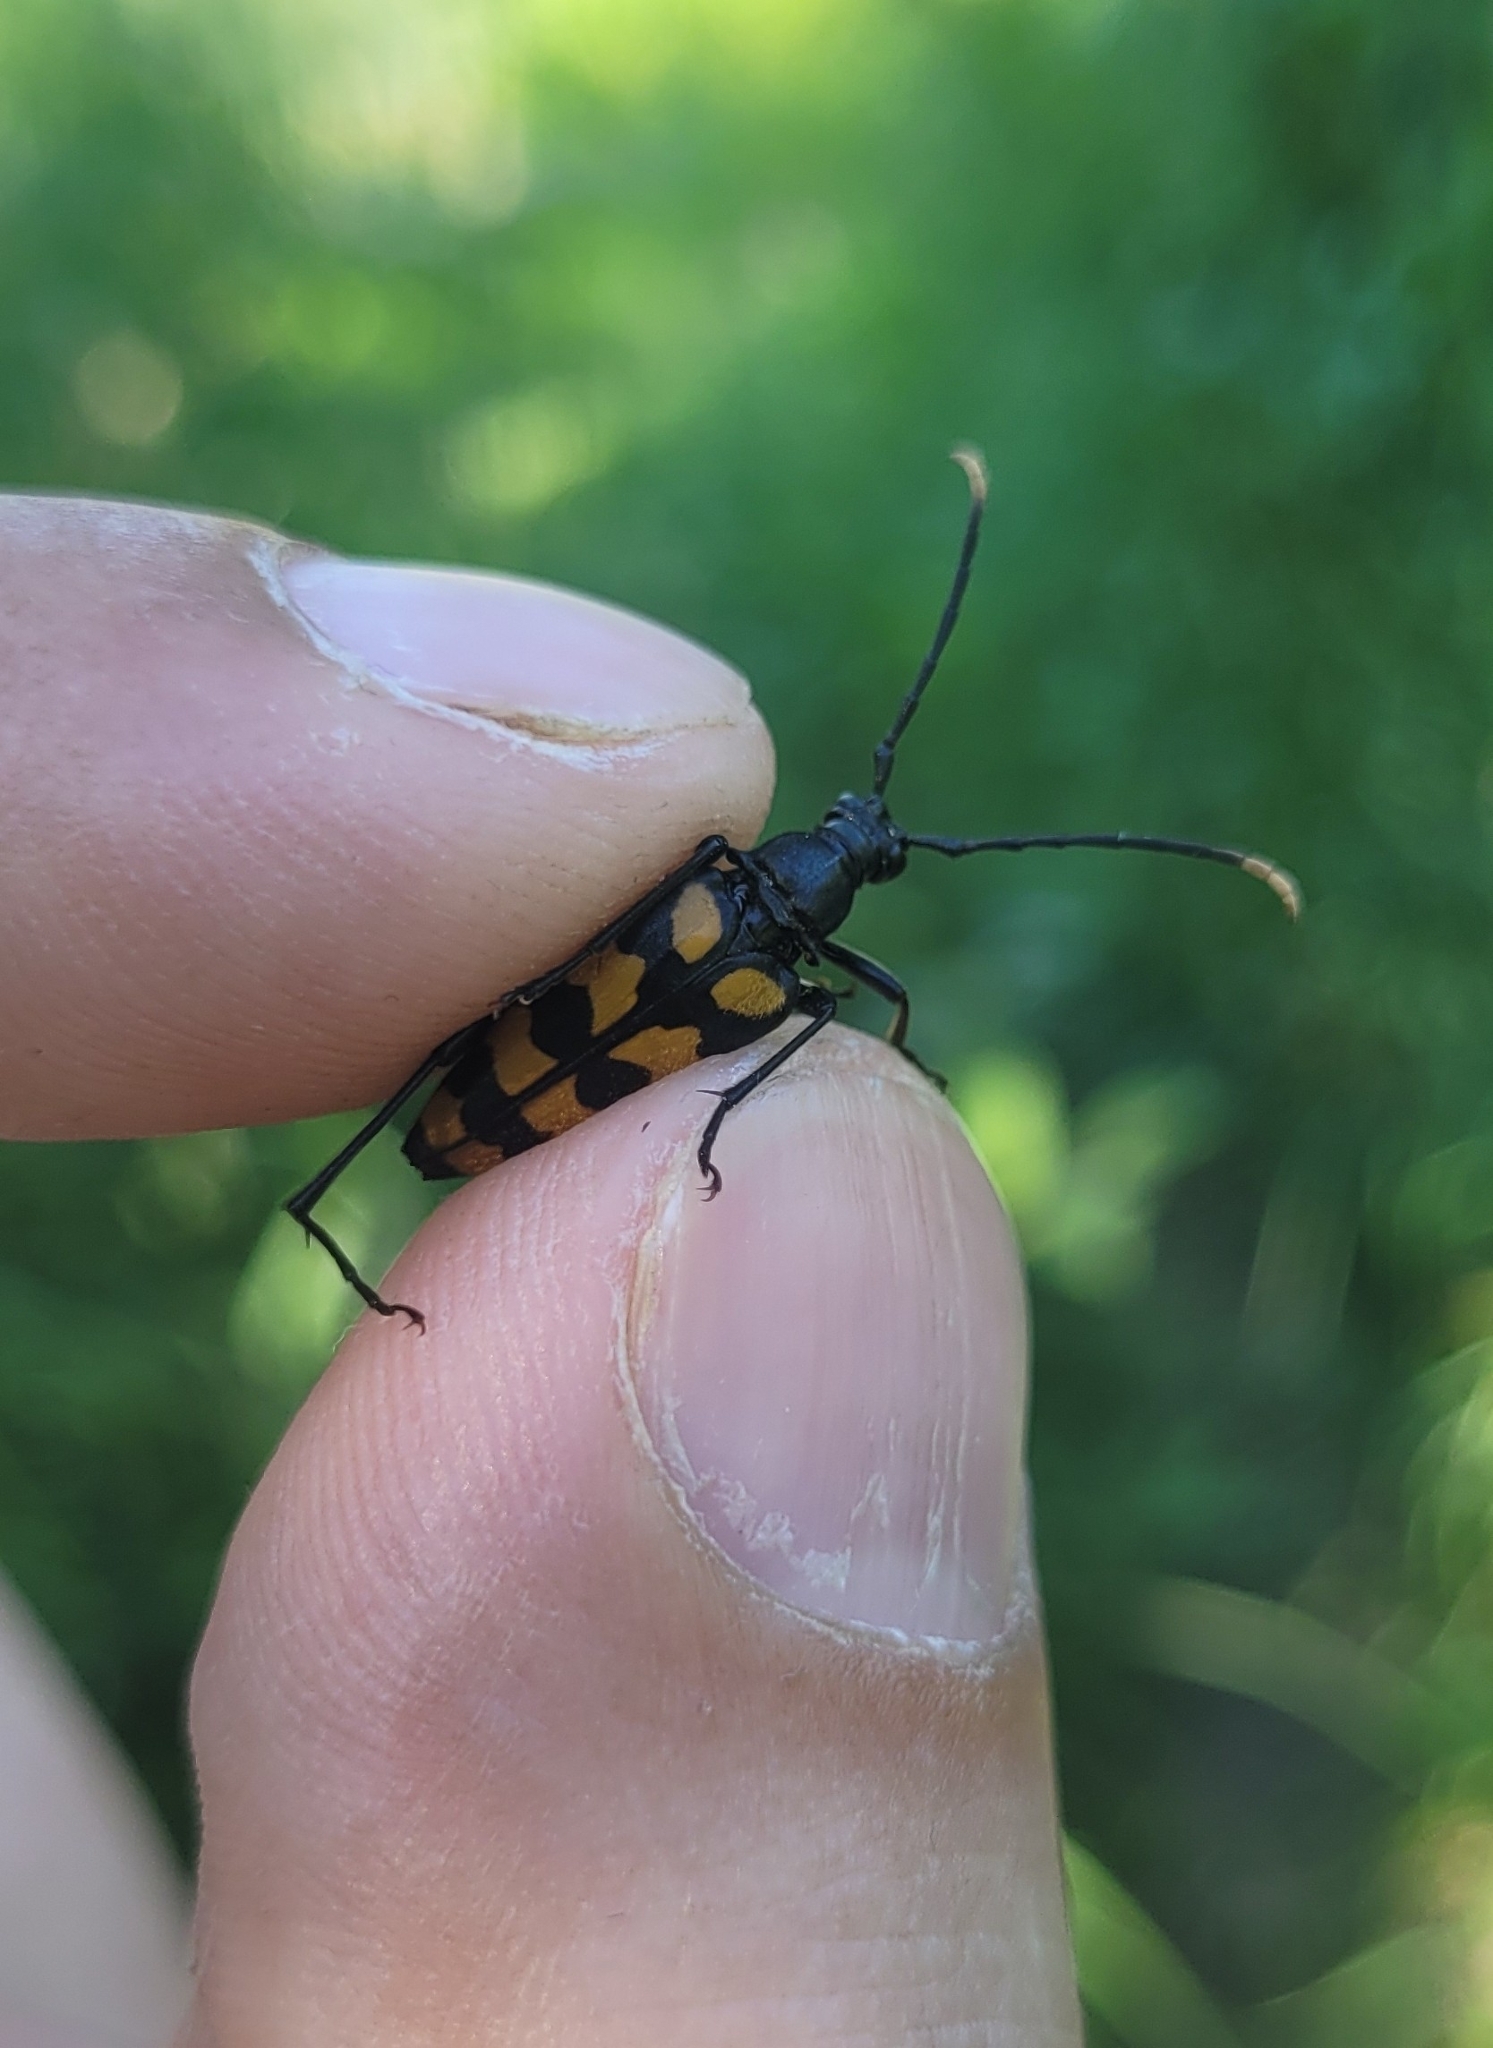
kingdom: Animalia
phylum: Arthropoda
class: Insecta
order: Coleoptera
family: Cerambycidae
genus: Leptura
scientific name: Leptura quadrifasciata
